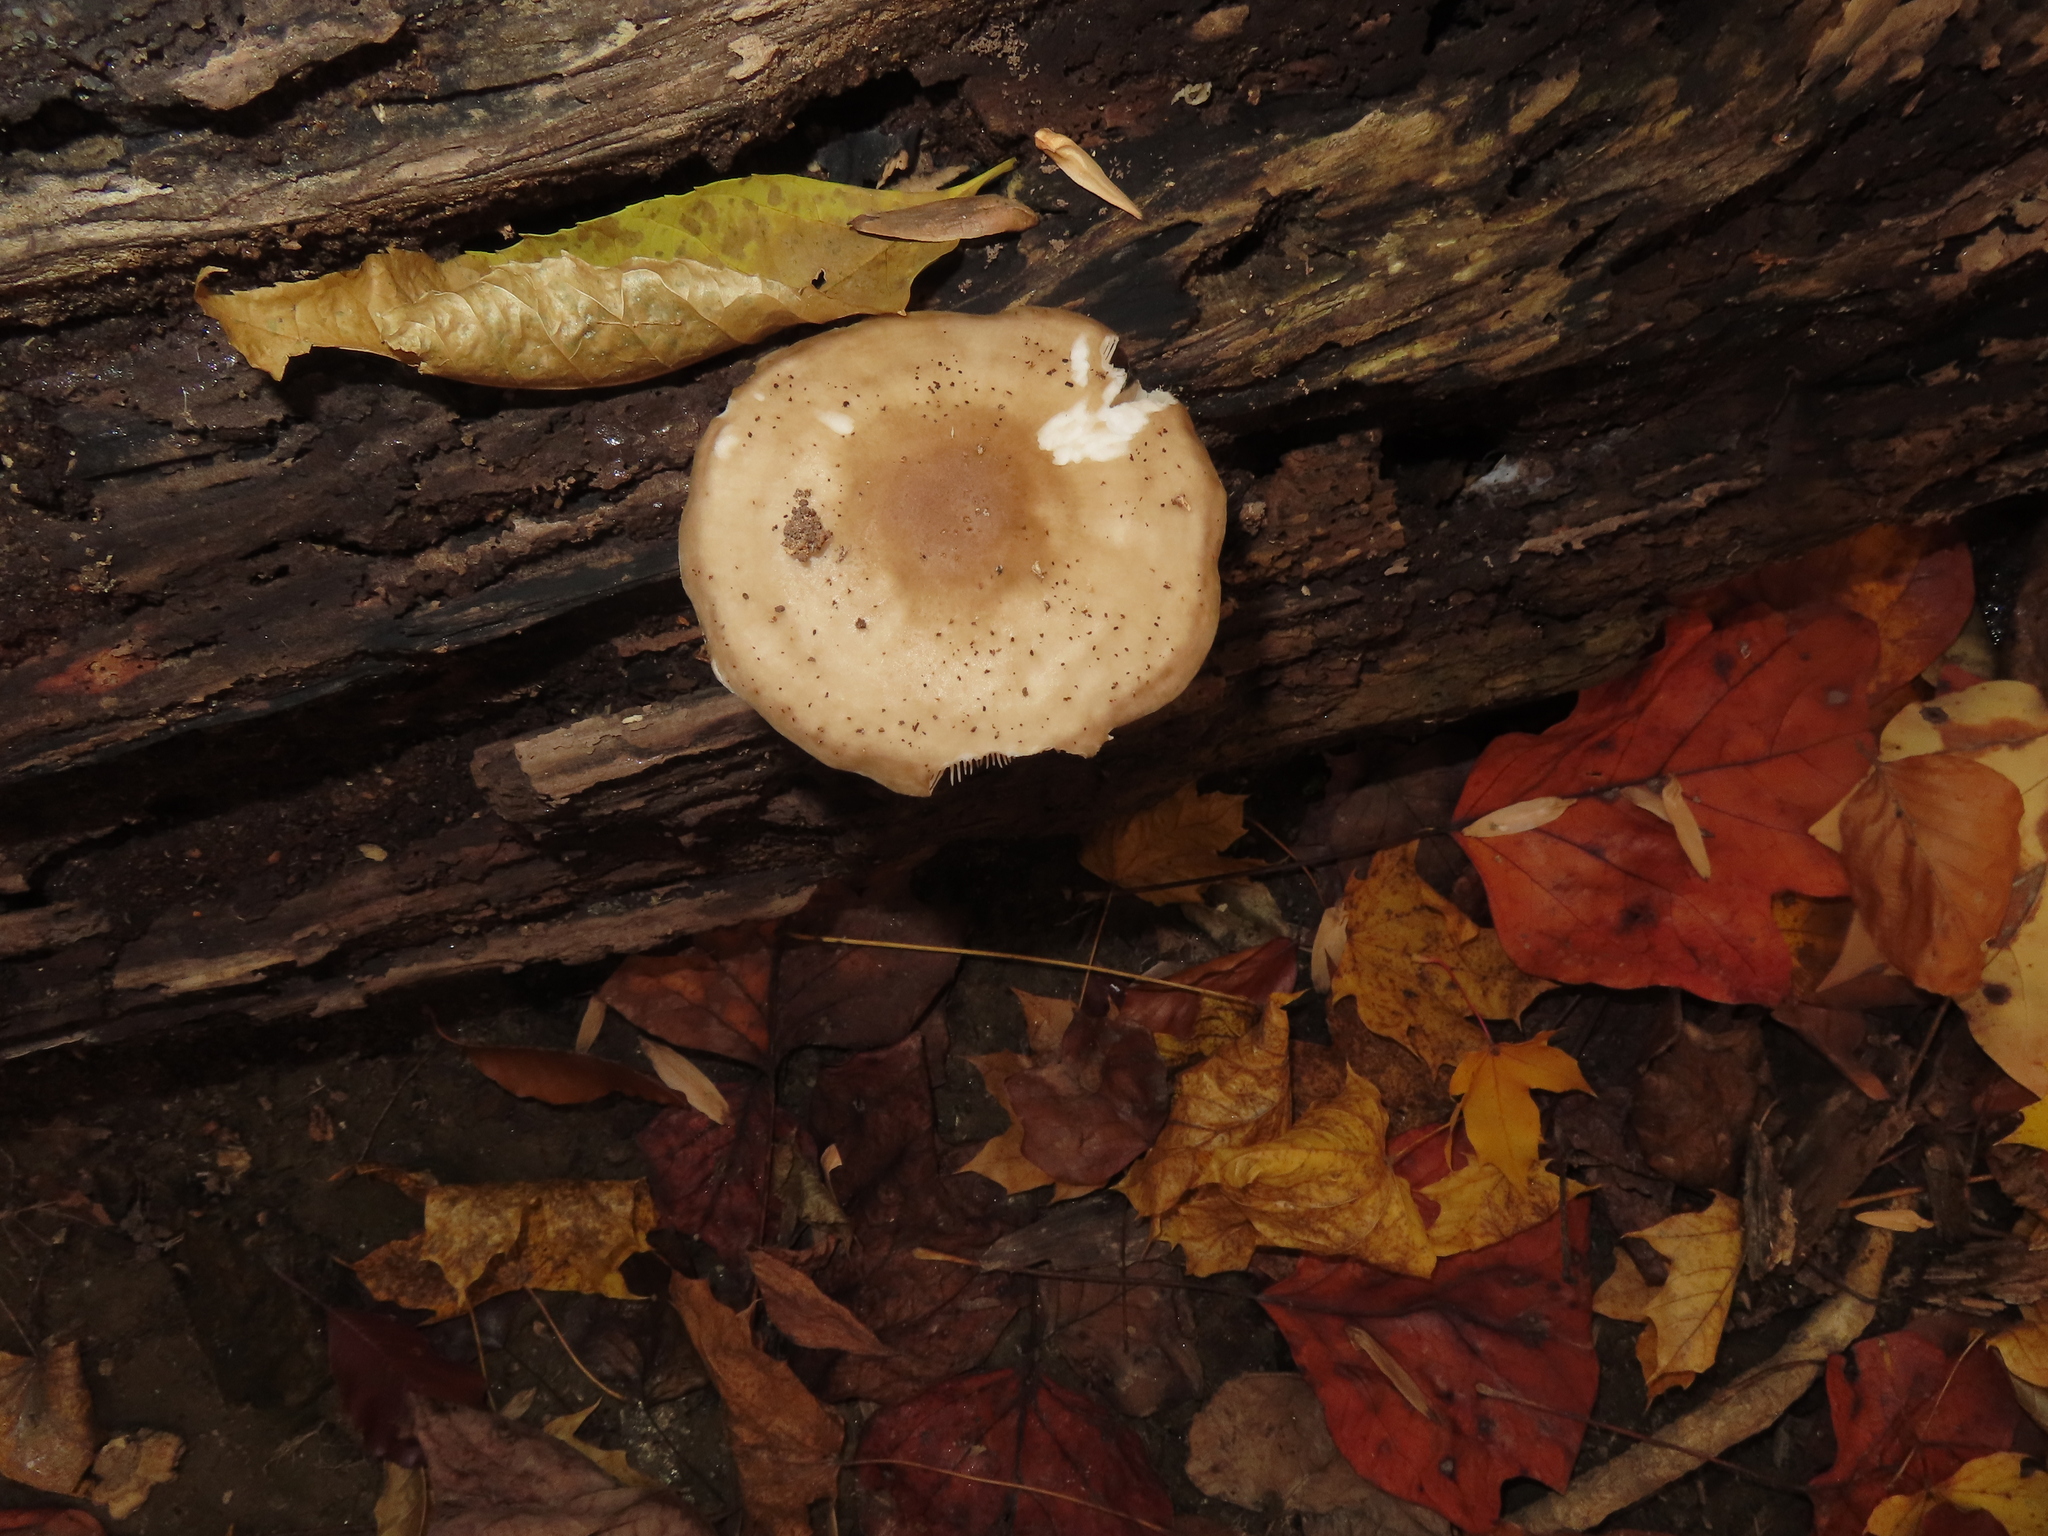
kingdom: Fungi
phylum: Basidiomycota
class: Agaricomycetes
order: Agaricales
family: Pluteaceae
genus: Pluteus
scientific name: Pluteus cervinus
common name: Deer shield
